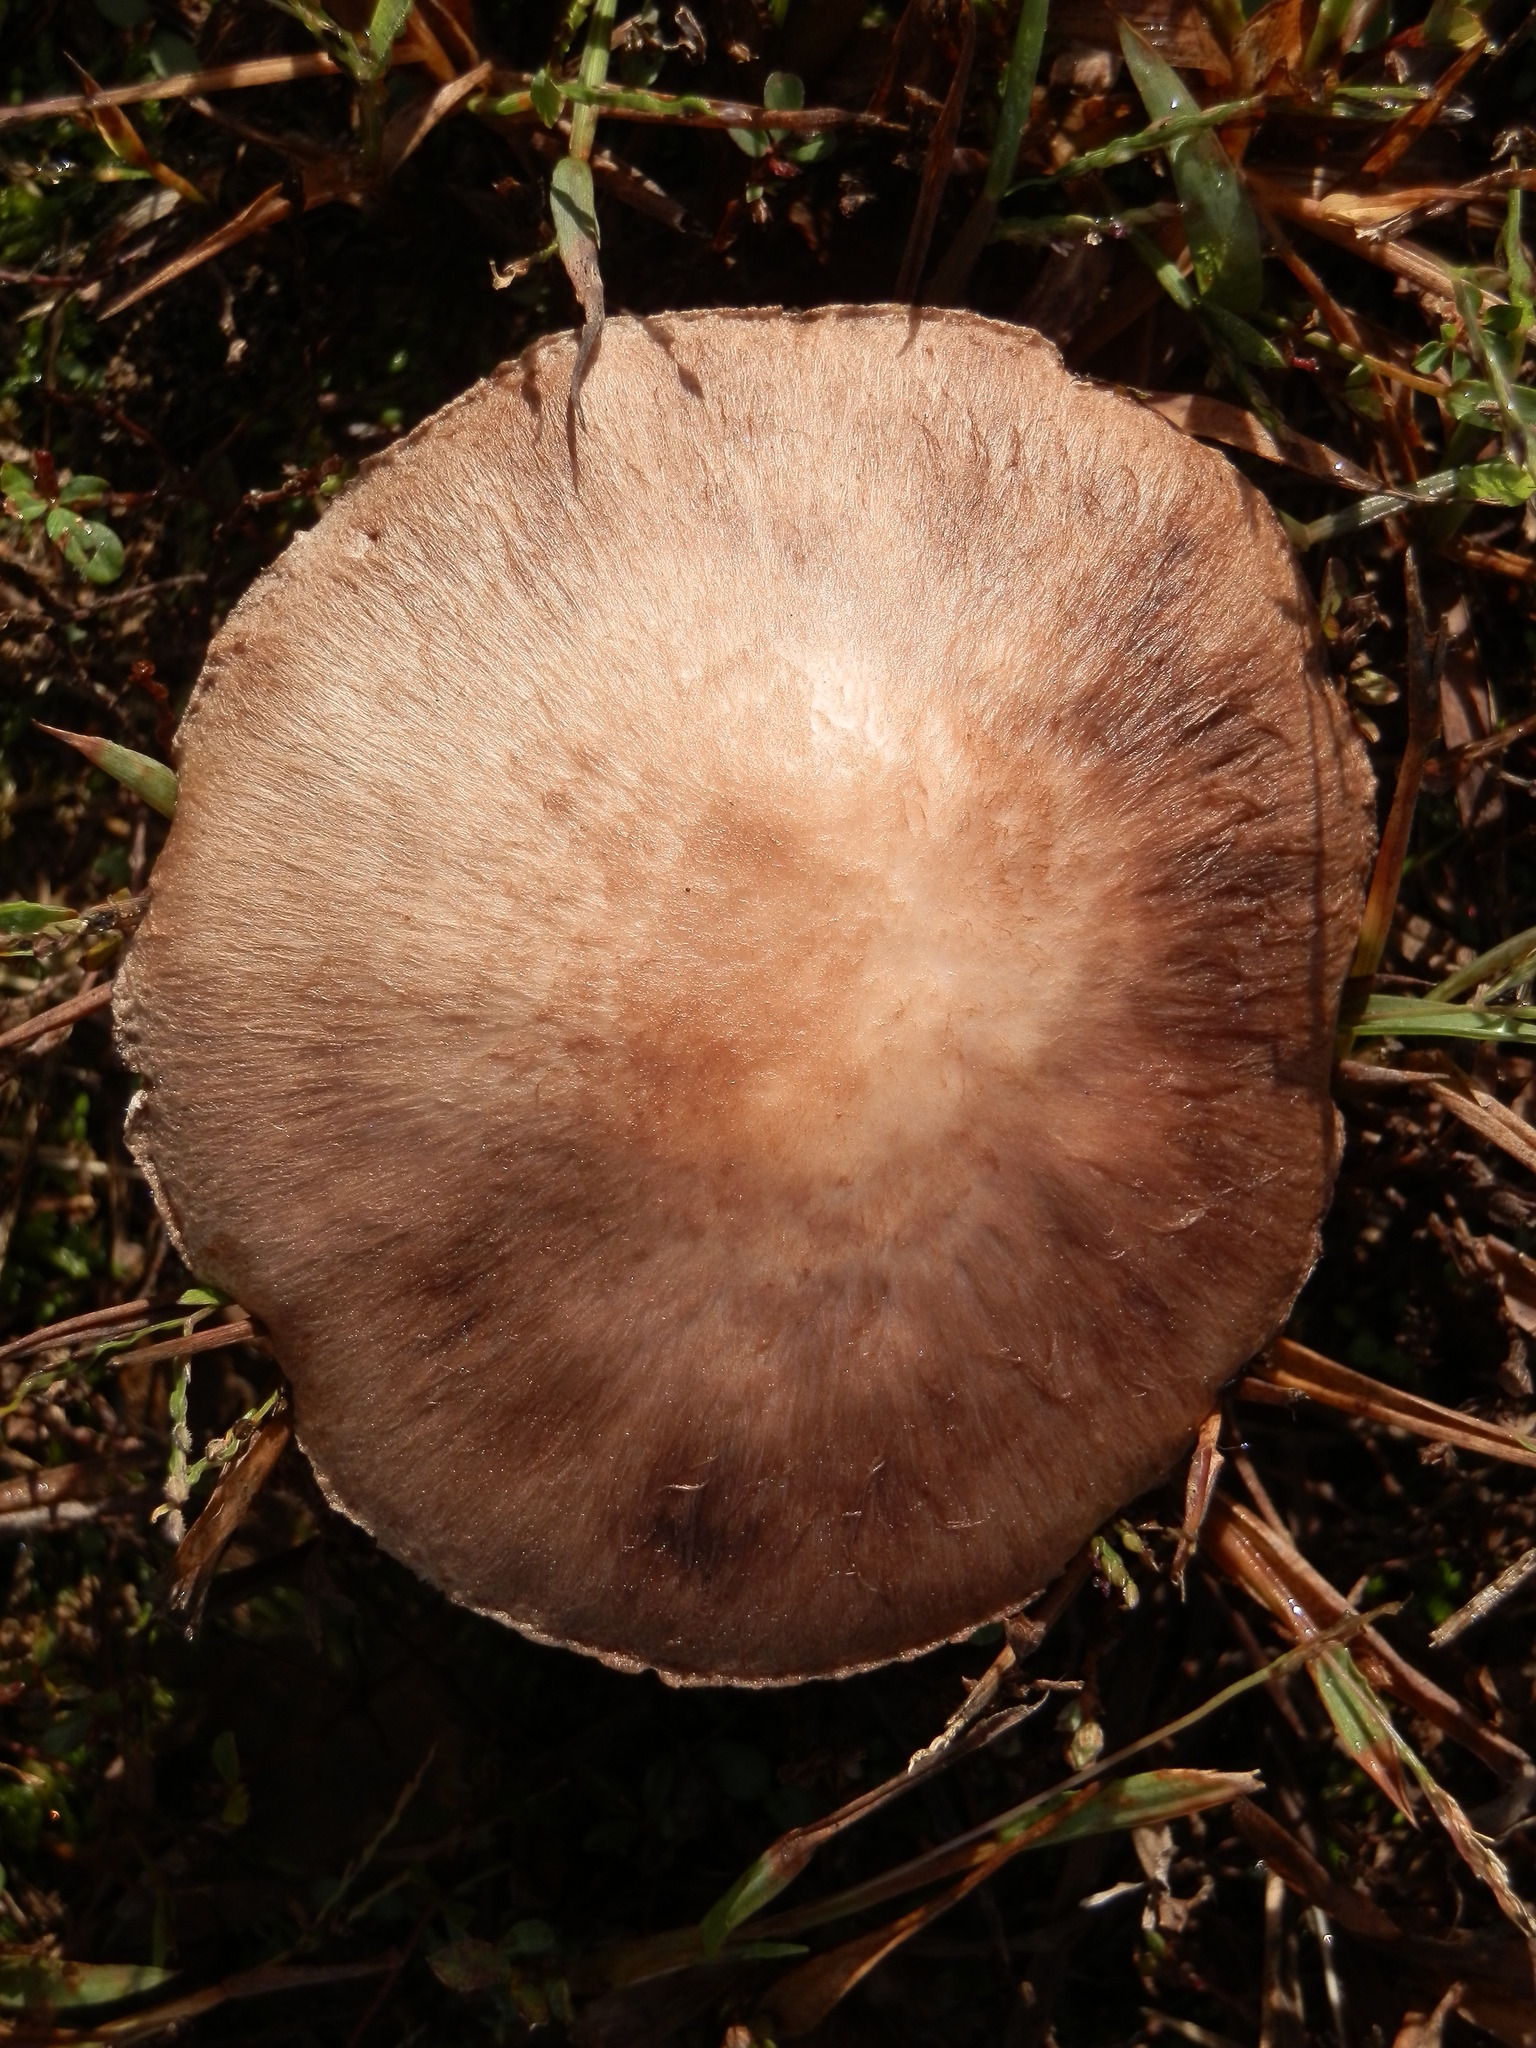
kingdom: Fungi
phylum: Basidiomycota
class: Agaricomycetes
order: Agaricales
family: Agaricaceae
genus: Agaricus
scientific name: Agaricus sylvaticus
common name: Blushing wood mushroom
